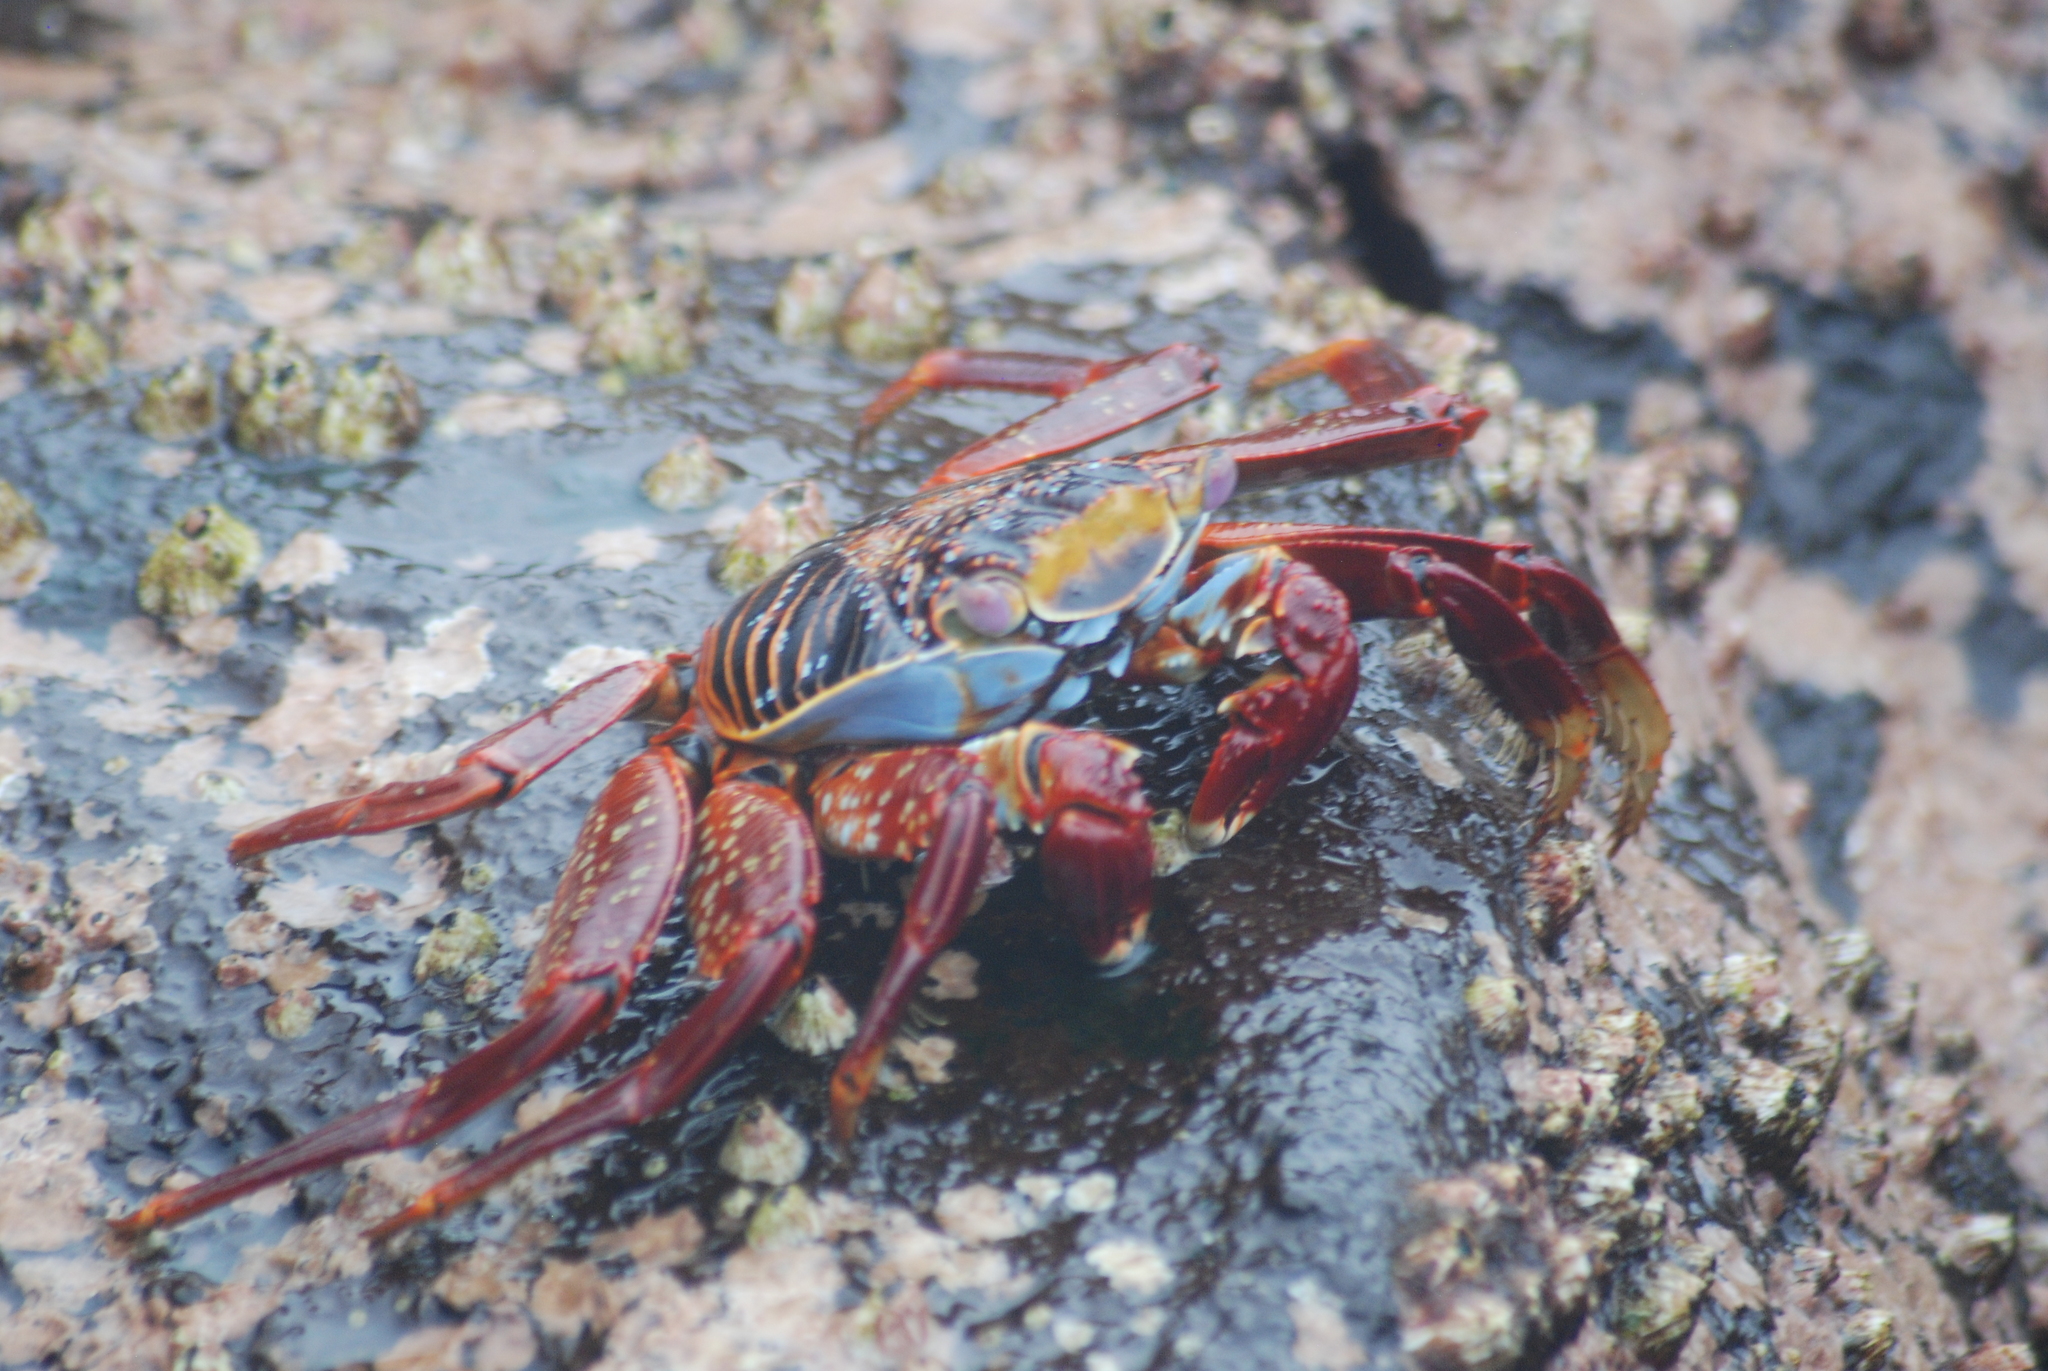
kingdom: Animalia
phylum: Arthropoda
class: Malacostraca
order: Decapoda
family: Grapsidae
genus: Grapsus
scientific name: Grapsus grapsus
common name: Sally lightfoot
